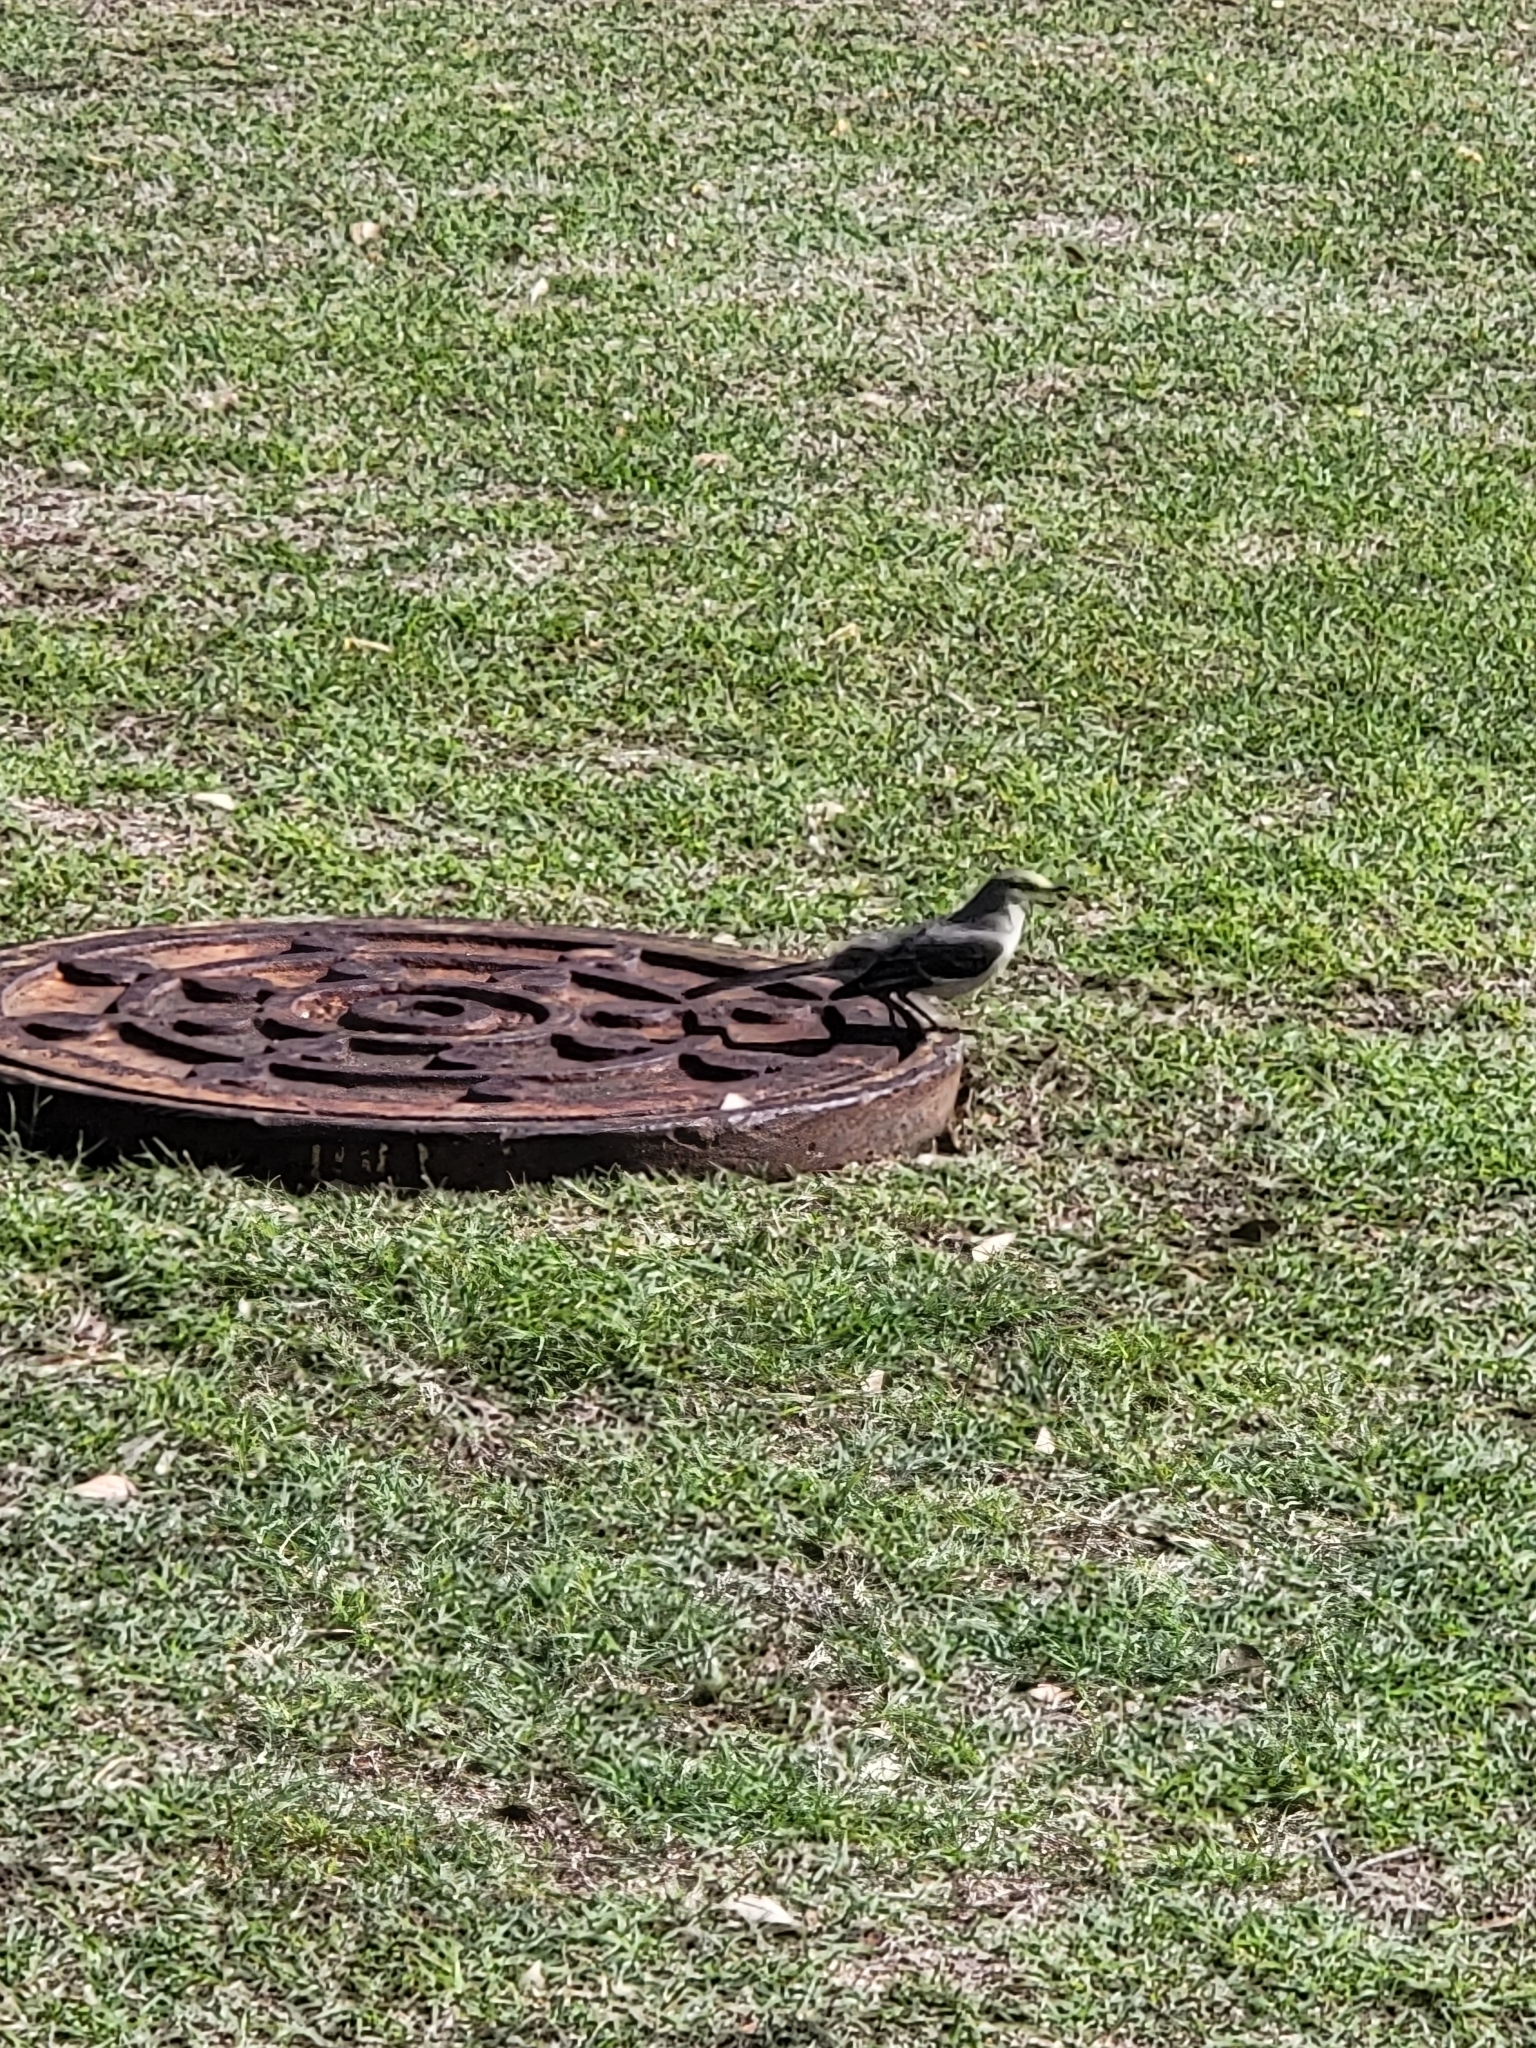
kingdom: Animalia
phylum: Chordata
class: Aves
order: Passeriformes
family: Mimidae
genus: Mimus
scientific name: Mimus polyglottos
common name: Northern mockingbird
